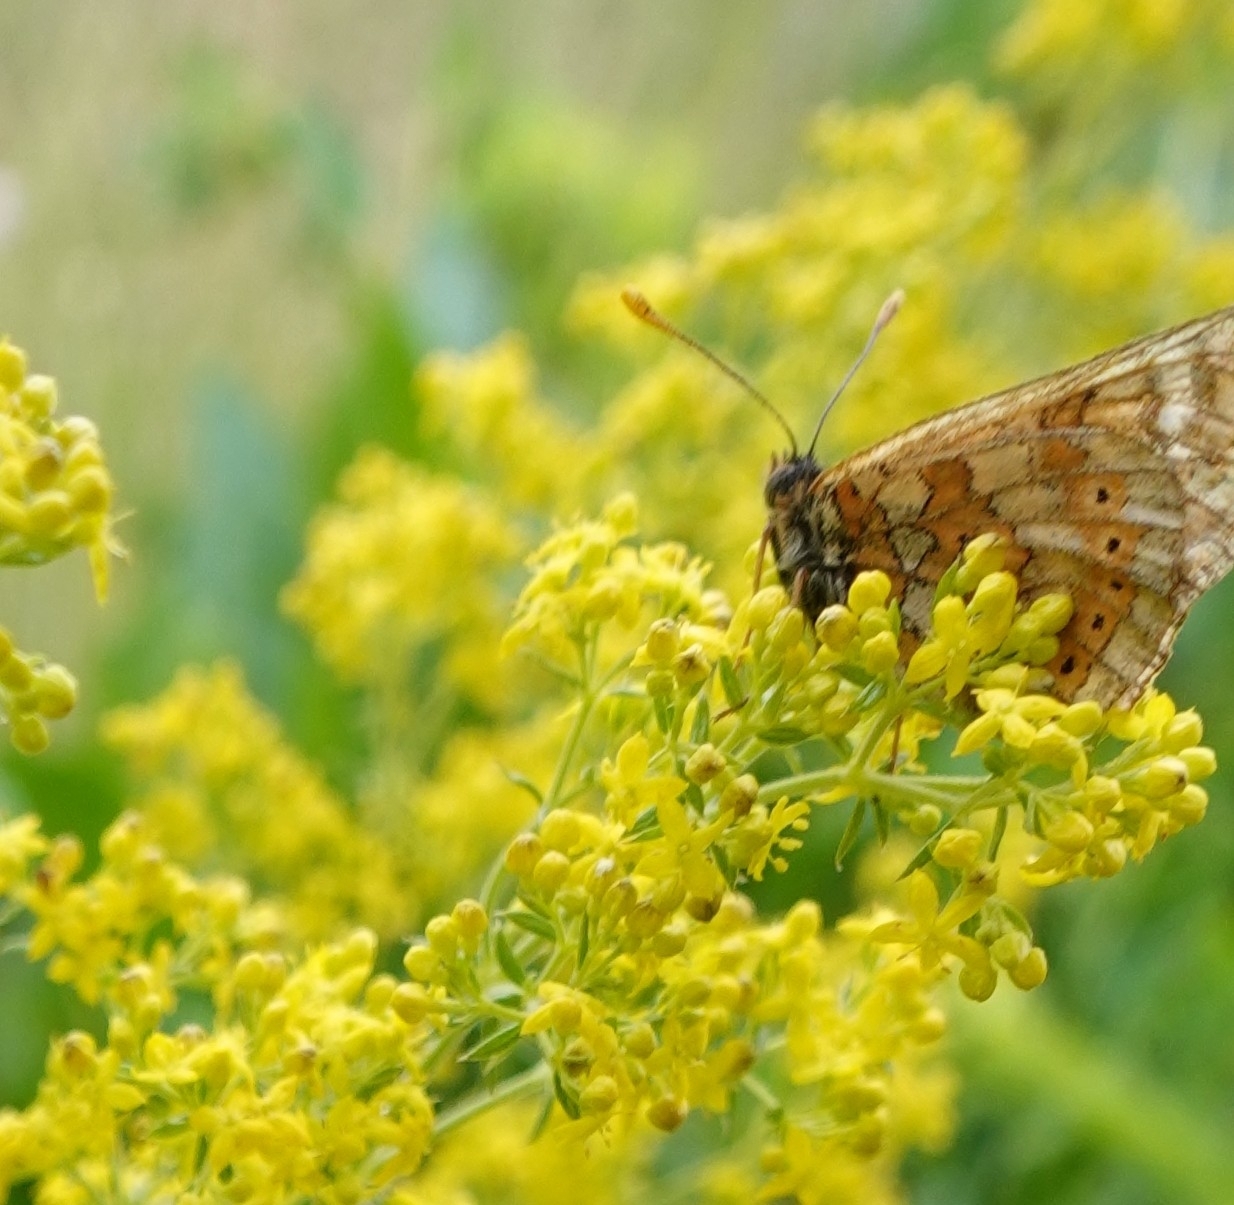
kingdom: Animalia
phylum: Arthropoda
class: Insecta
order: Lepidoptera
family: Nymphalidae
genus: Euphydryas
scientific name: Euphydryas aurinia
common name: Marsh fritillary
